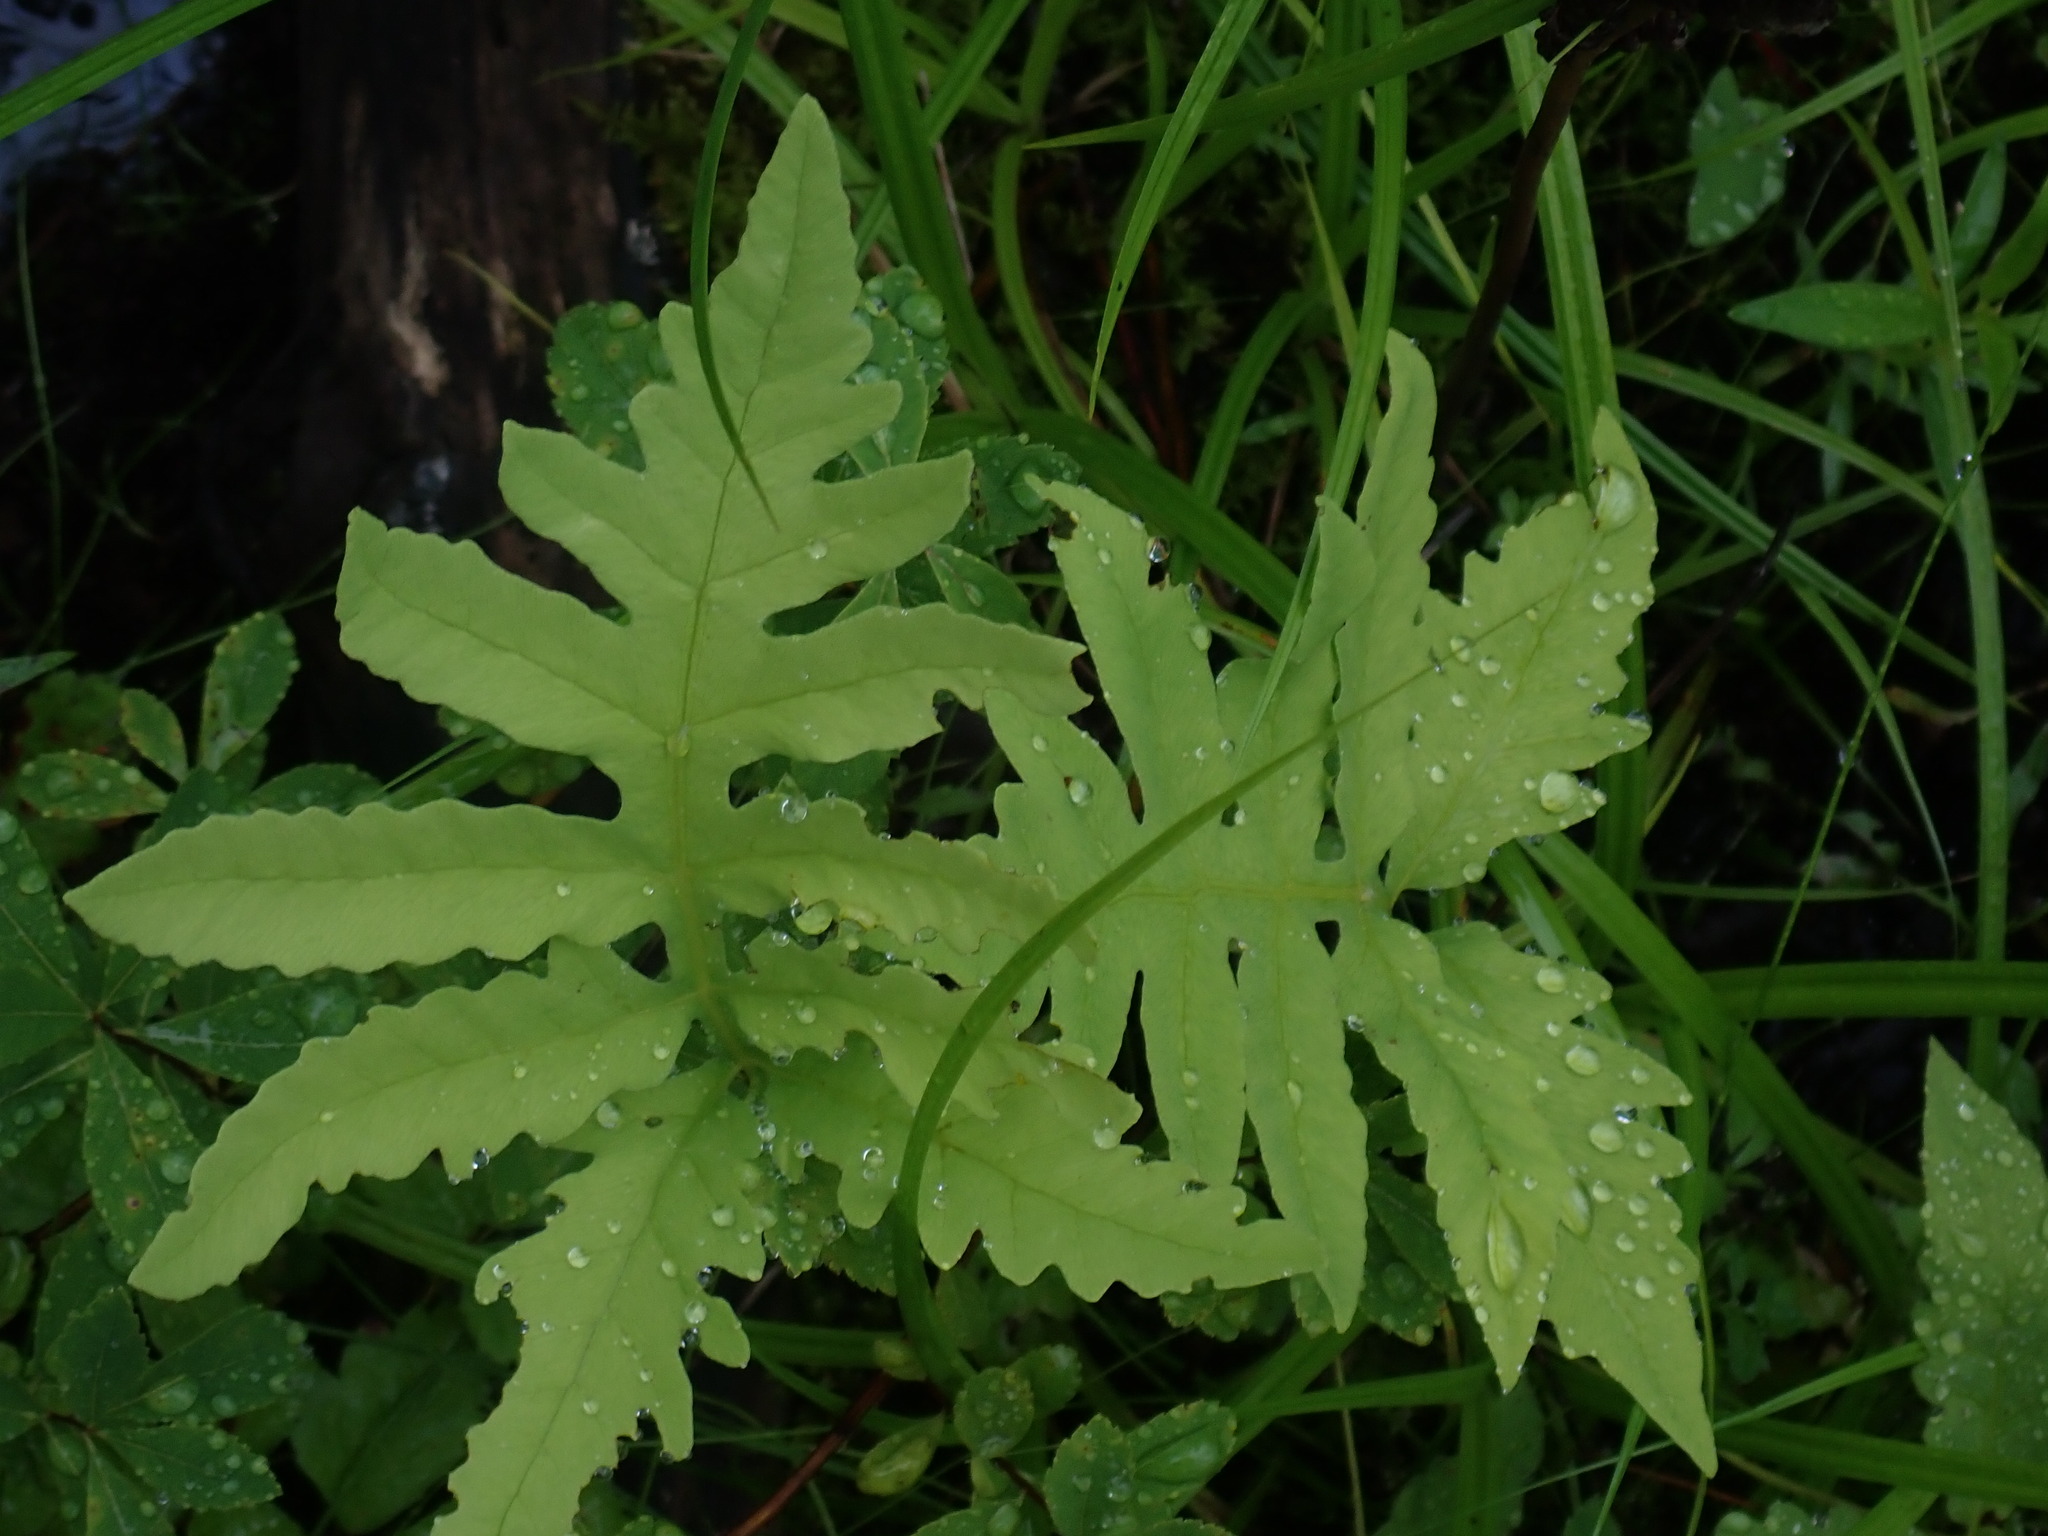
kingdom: Plantae
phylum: Tracheophyta
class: Polypodiopsida
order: Polypodiales
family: Onocleaceae
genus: Onoclea
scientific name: Onoclea sensibilis
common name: Sensitive fern
